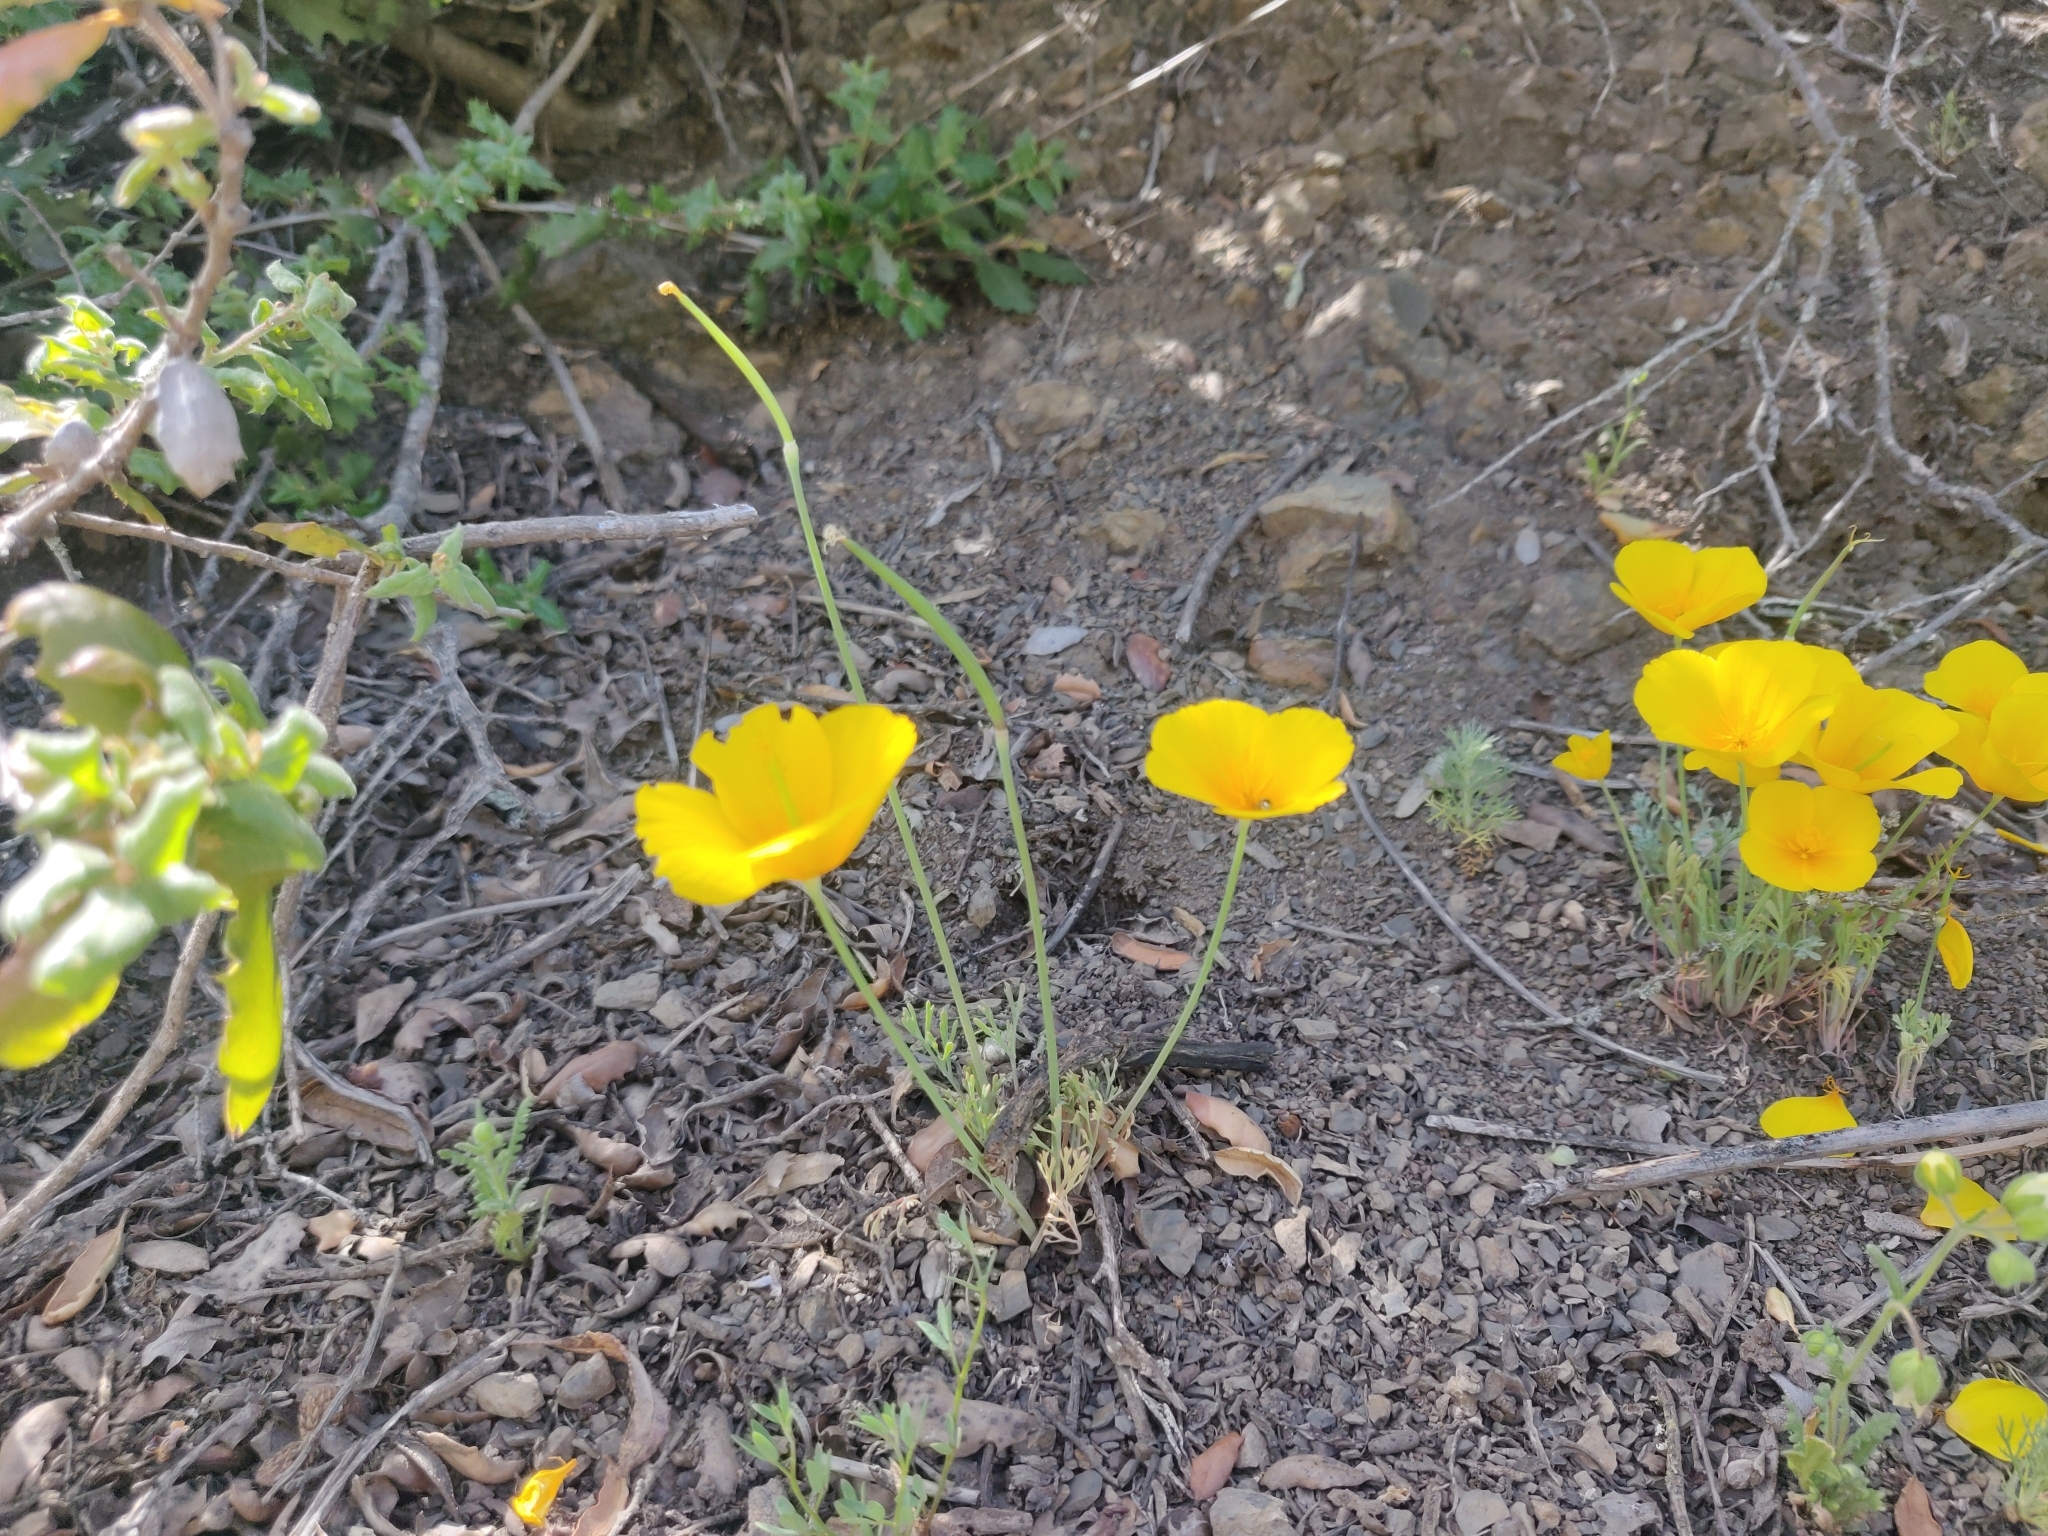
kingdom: Plantae
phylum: Tracheophyta
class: Magnoliopsida
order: Ranunculales
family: Papaveraceae
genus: Eschscholzia
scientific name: Eschscholzia caespitosa
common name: Tufted california-poppy
